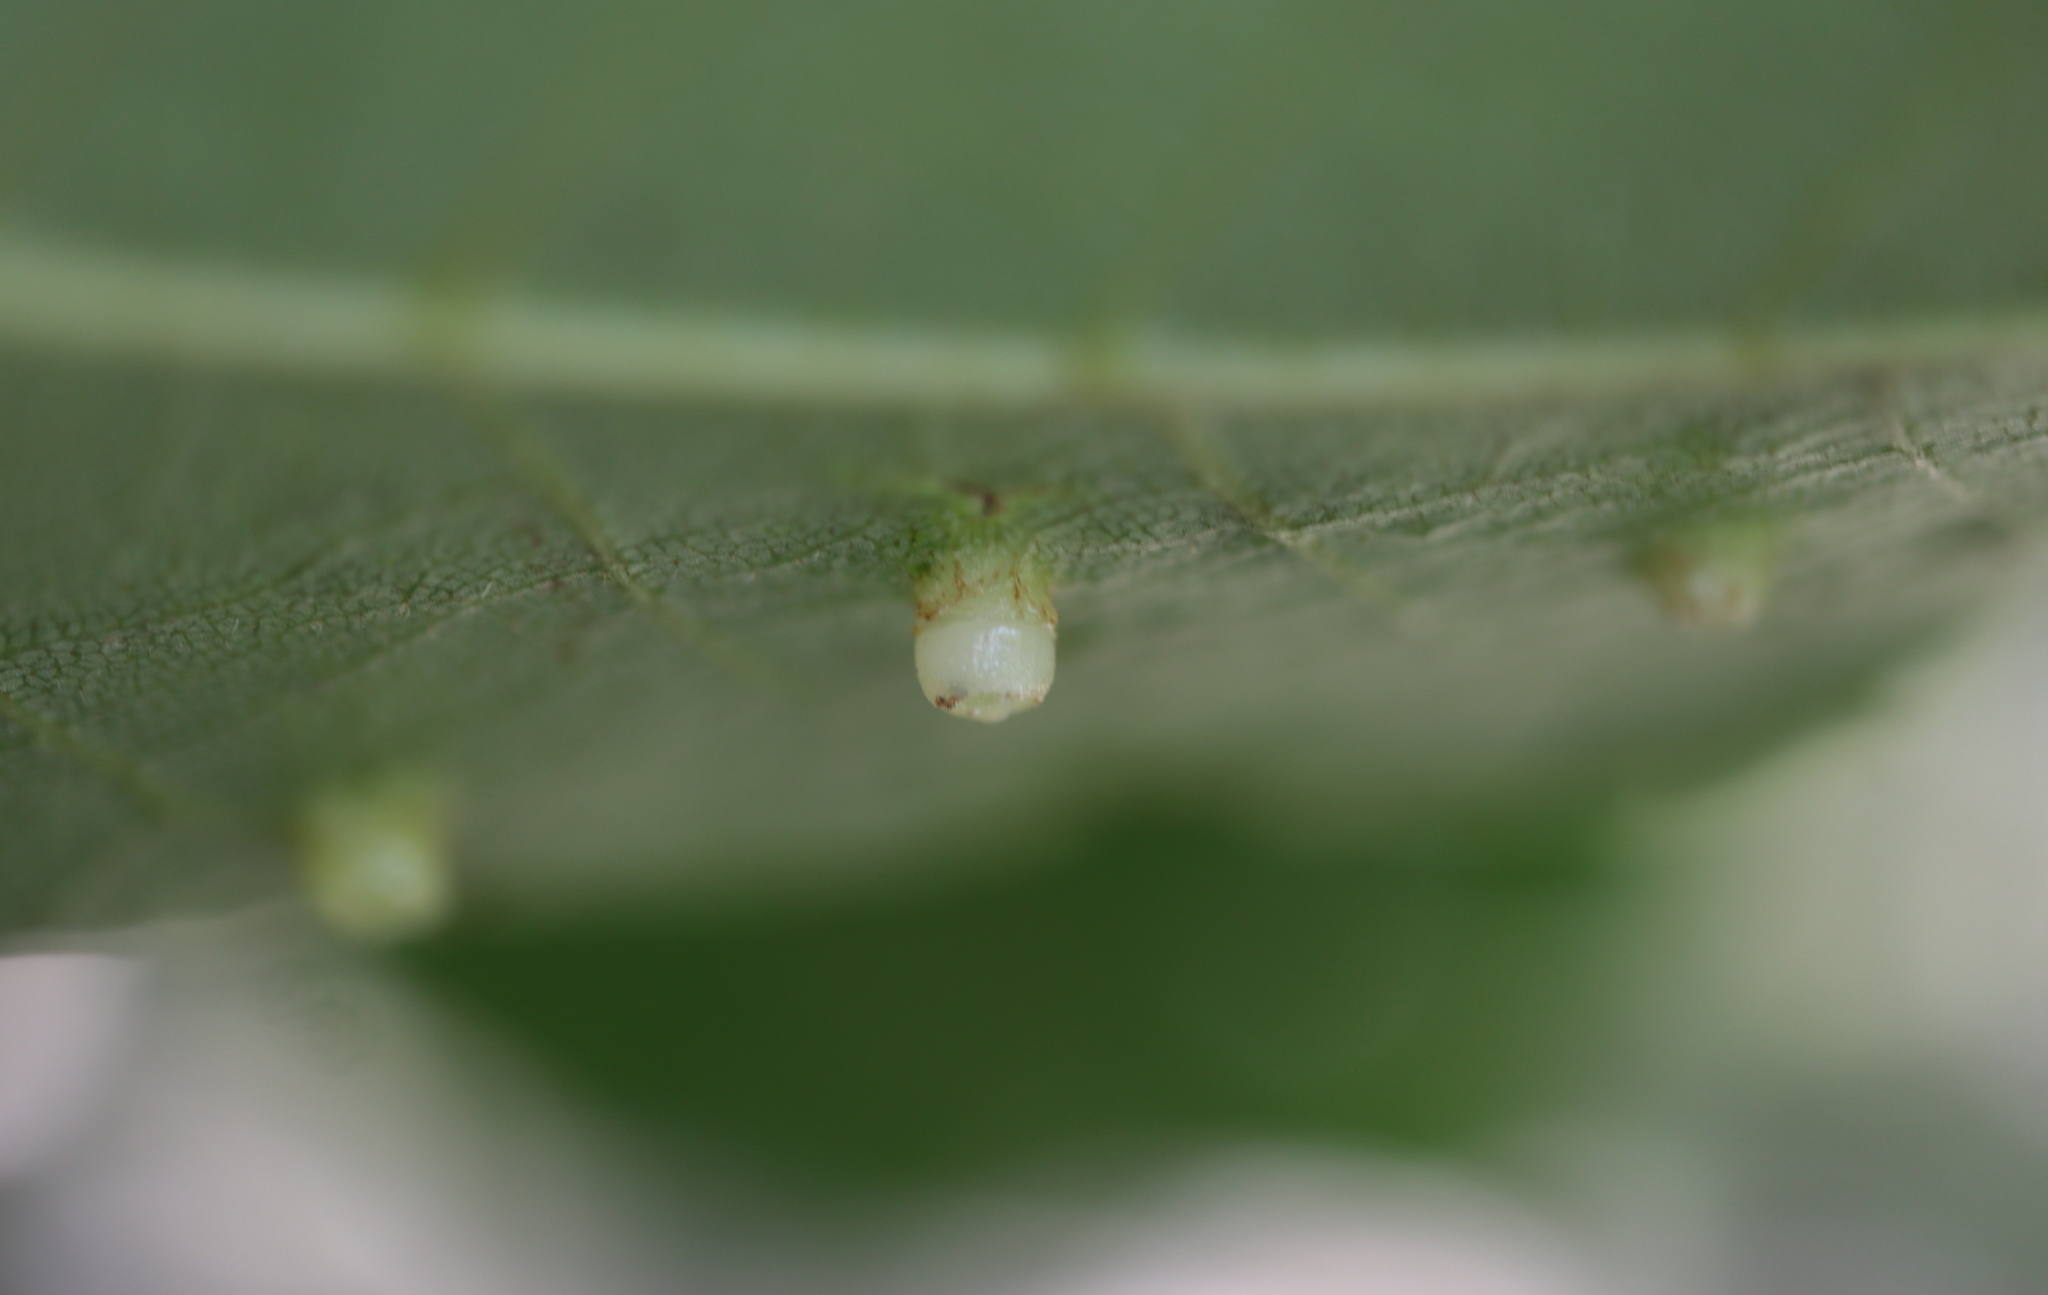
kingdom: Animalia
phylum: Arthropoda
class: Insecta
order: Diptera
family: Cecidomyiidae
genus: Caryomyia
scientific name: Caryomyia melicrustum
